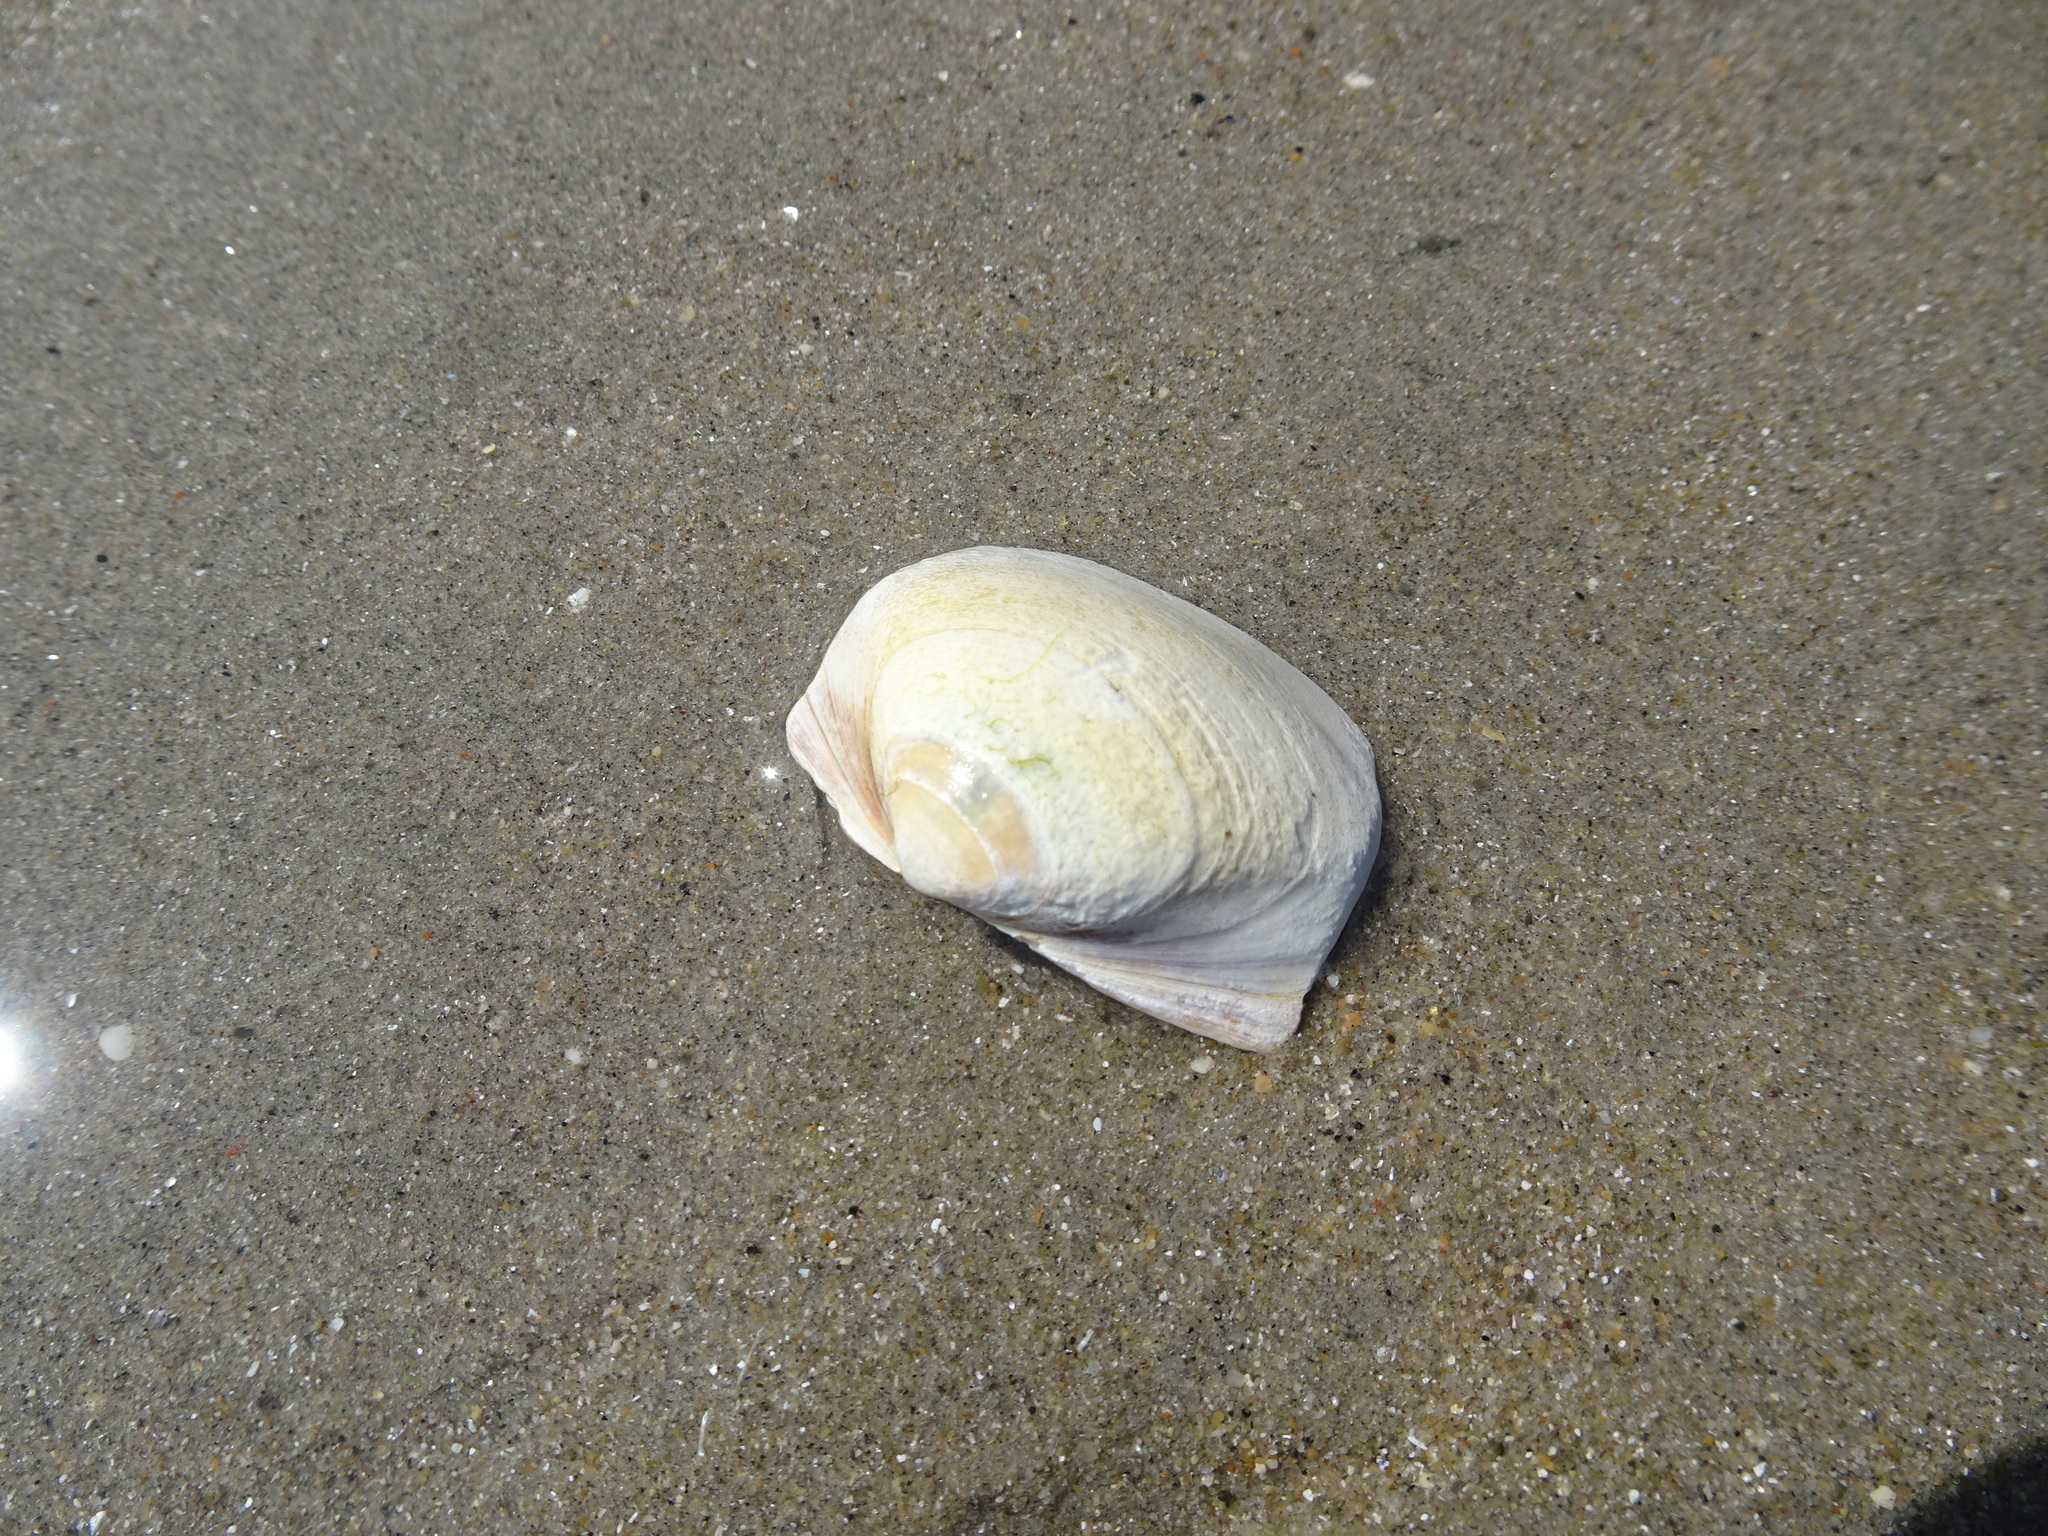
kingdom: Animalia
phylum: Mollusca
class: Bivalvia
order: Venerida
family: Mactridae
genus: Spisula
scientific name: Spisula solidissima
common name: Atlantic surf clam
